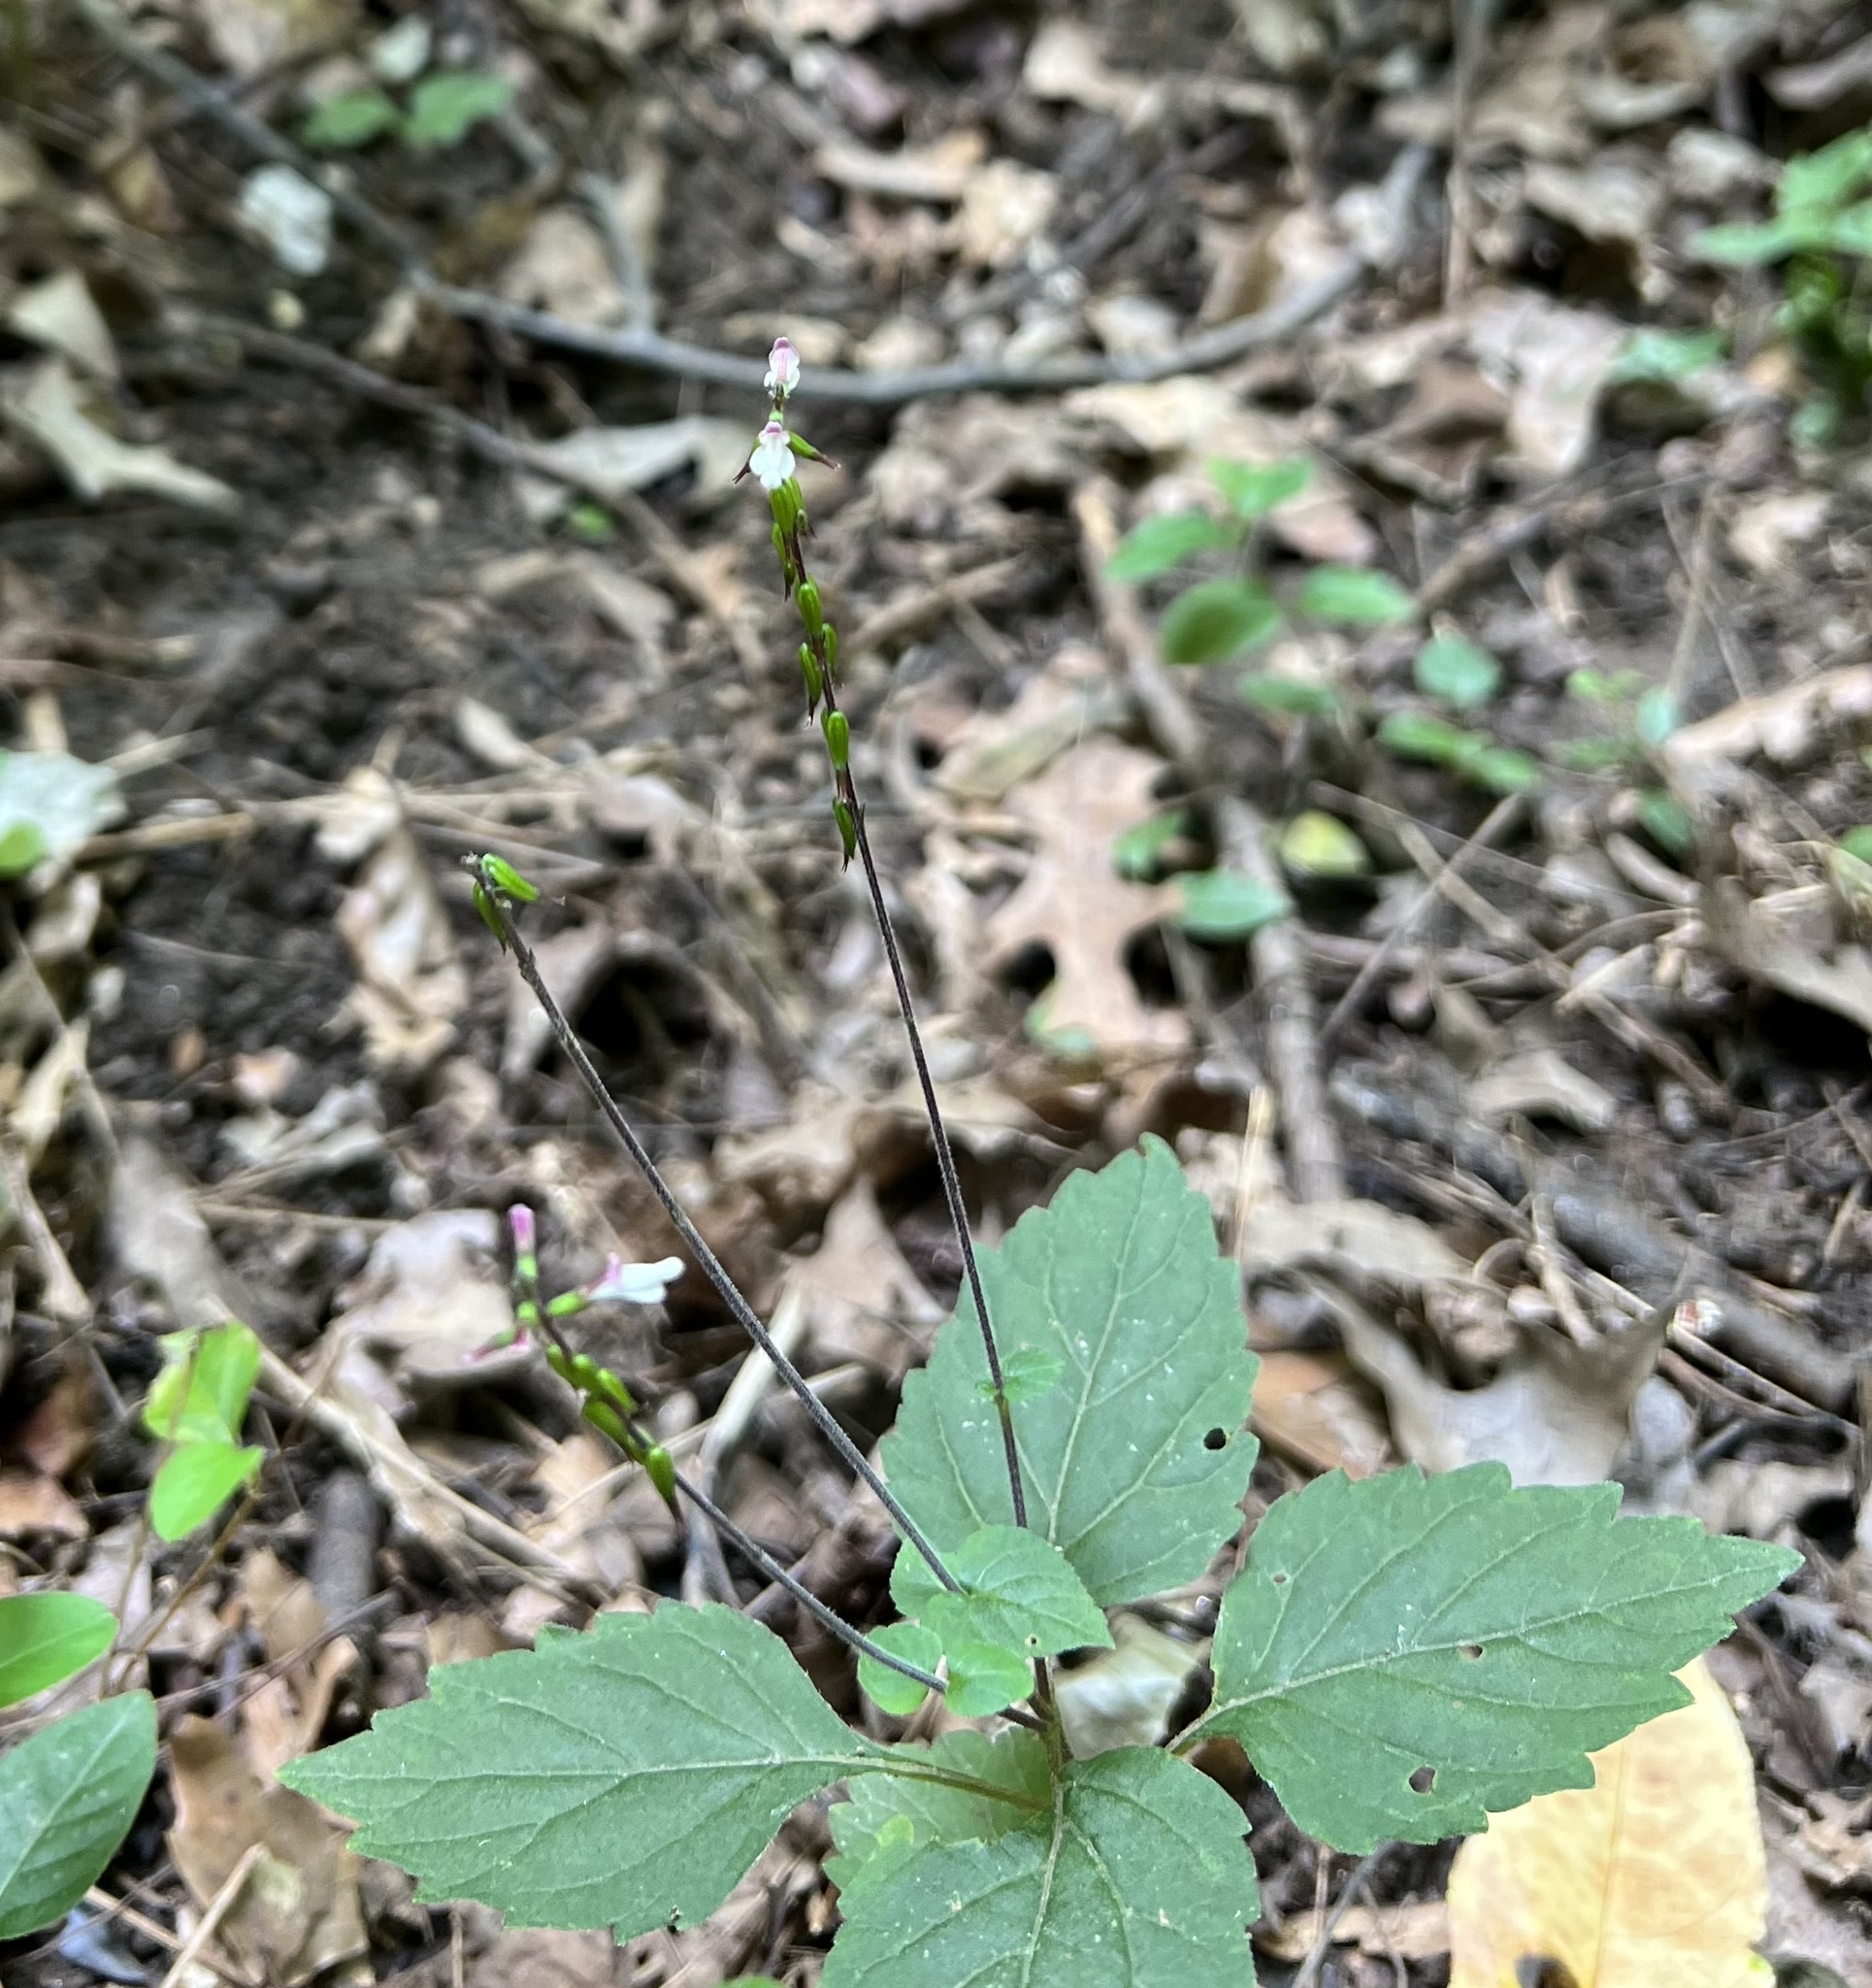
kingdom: Plantae
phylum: Tracheophyta
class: Magnoliopsida
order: Lamiales
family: Phrymaceae
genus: Phryma
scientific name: Phryma leptostachya
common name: American lopseed
